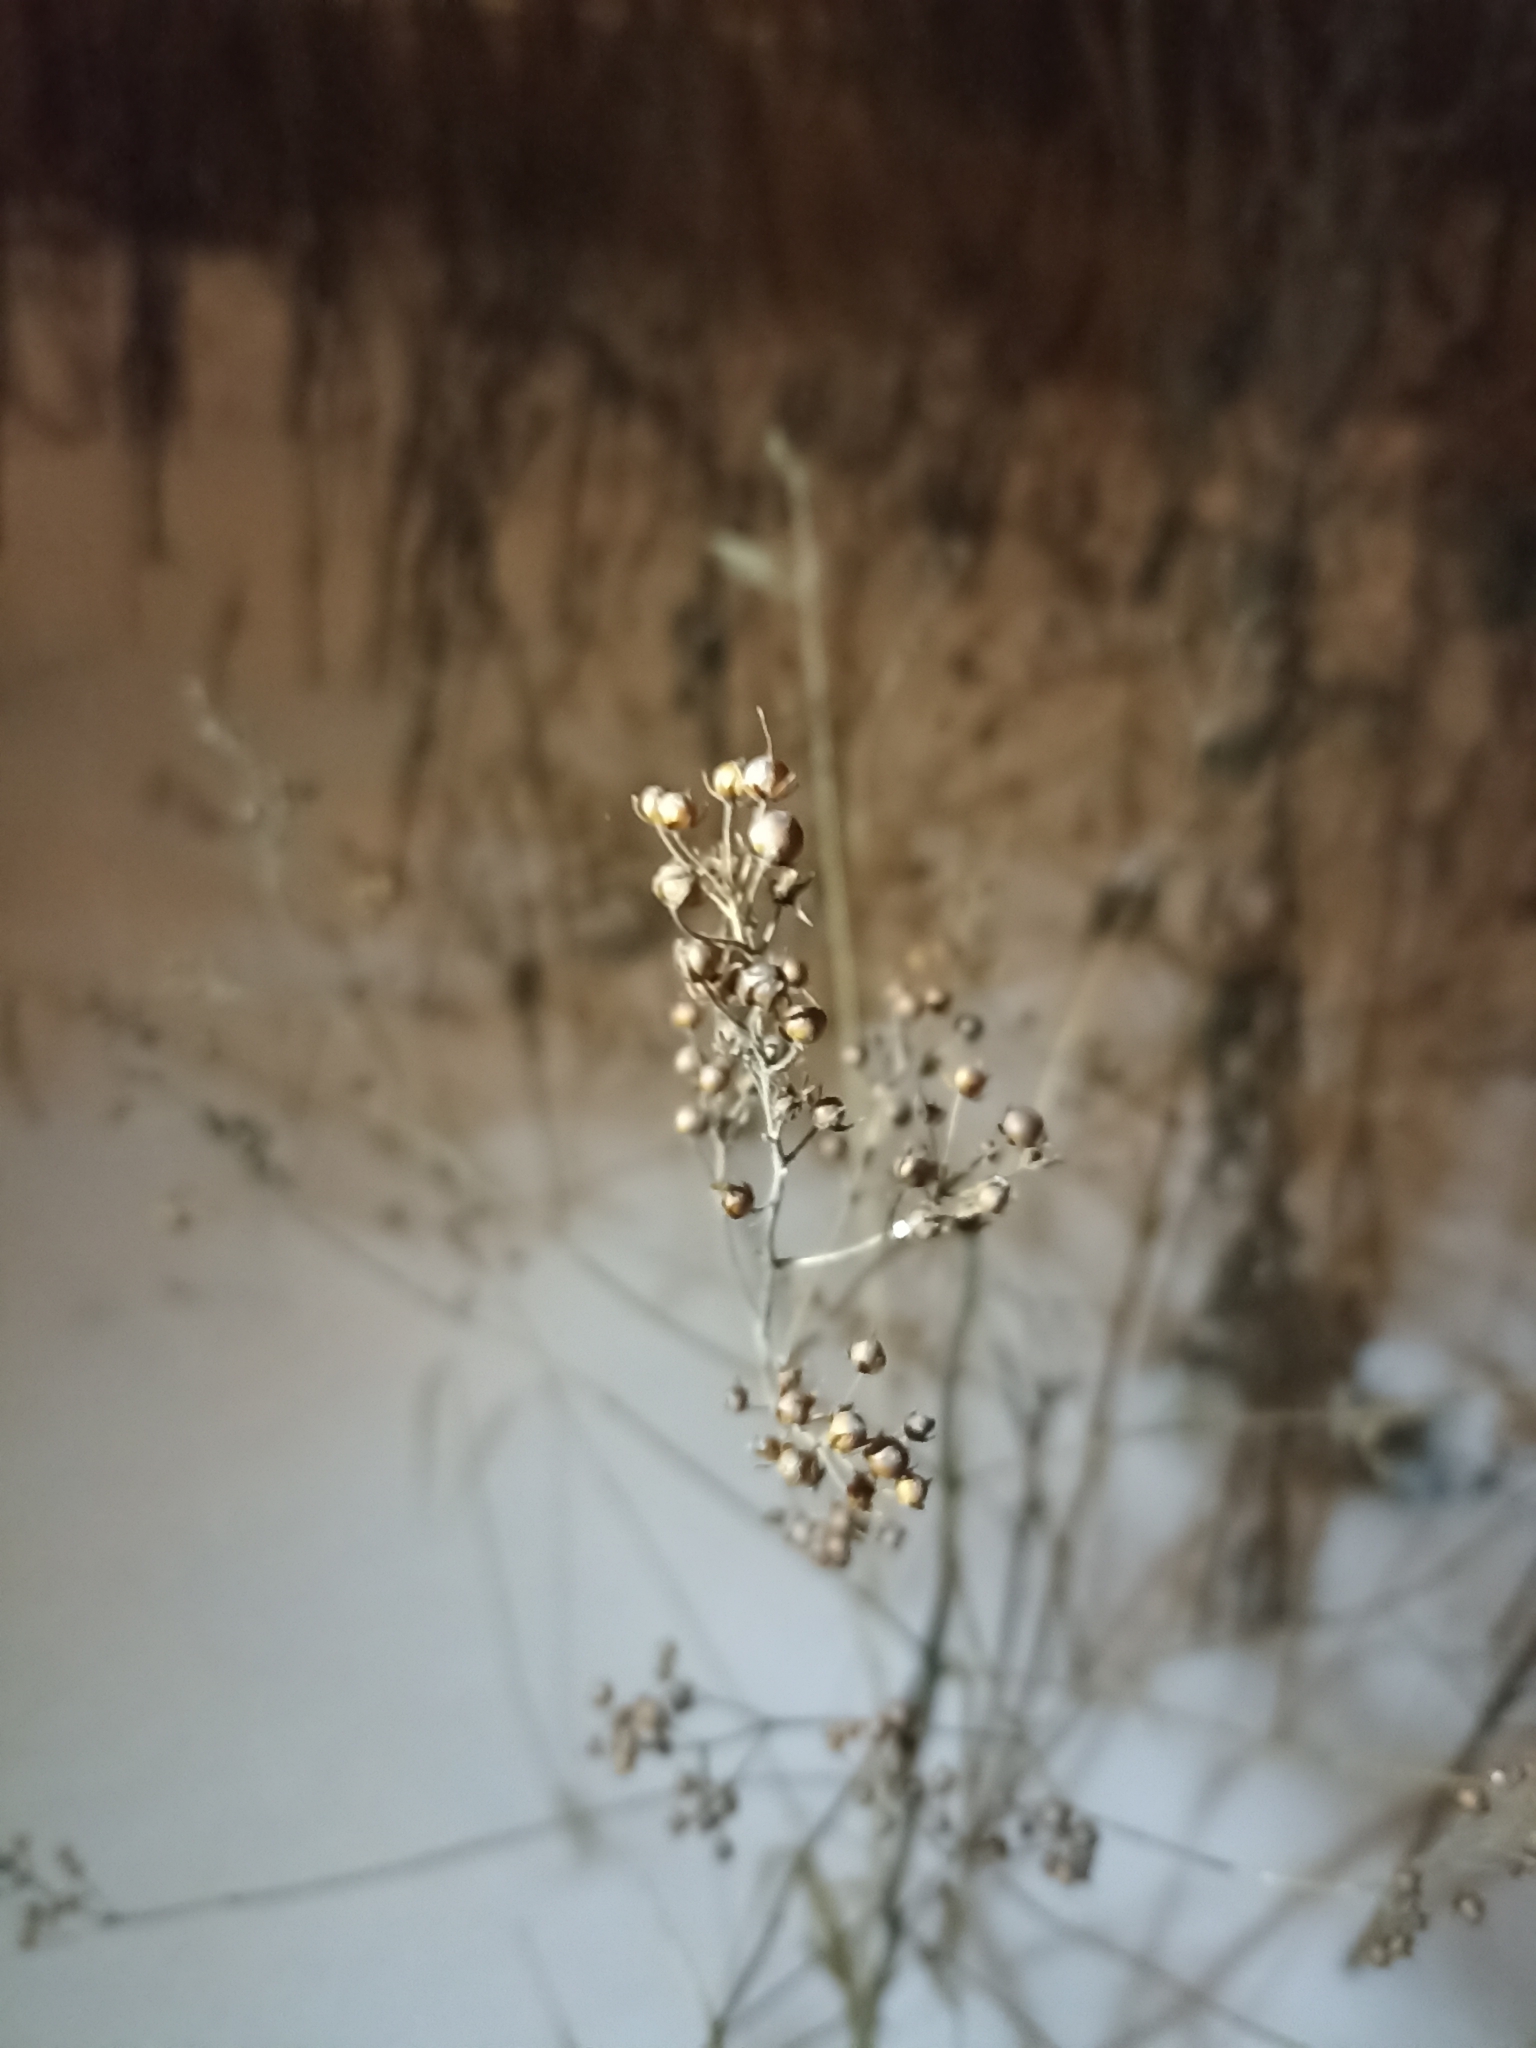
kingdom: Plantae
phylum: Tracheophyta
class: Magnoliopsida
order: Ericales
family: Primulaceae
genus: Lysimachia
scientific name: Lysimachia vulgaris
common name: Yellow loosestrife
